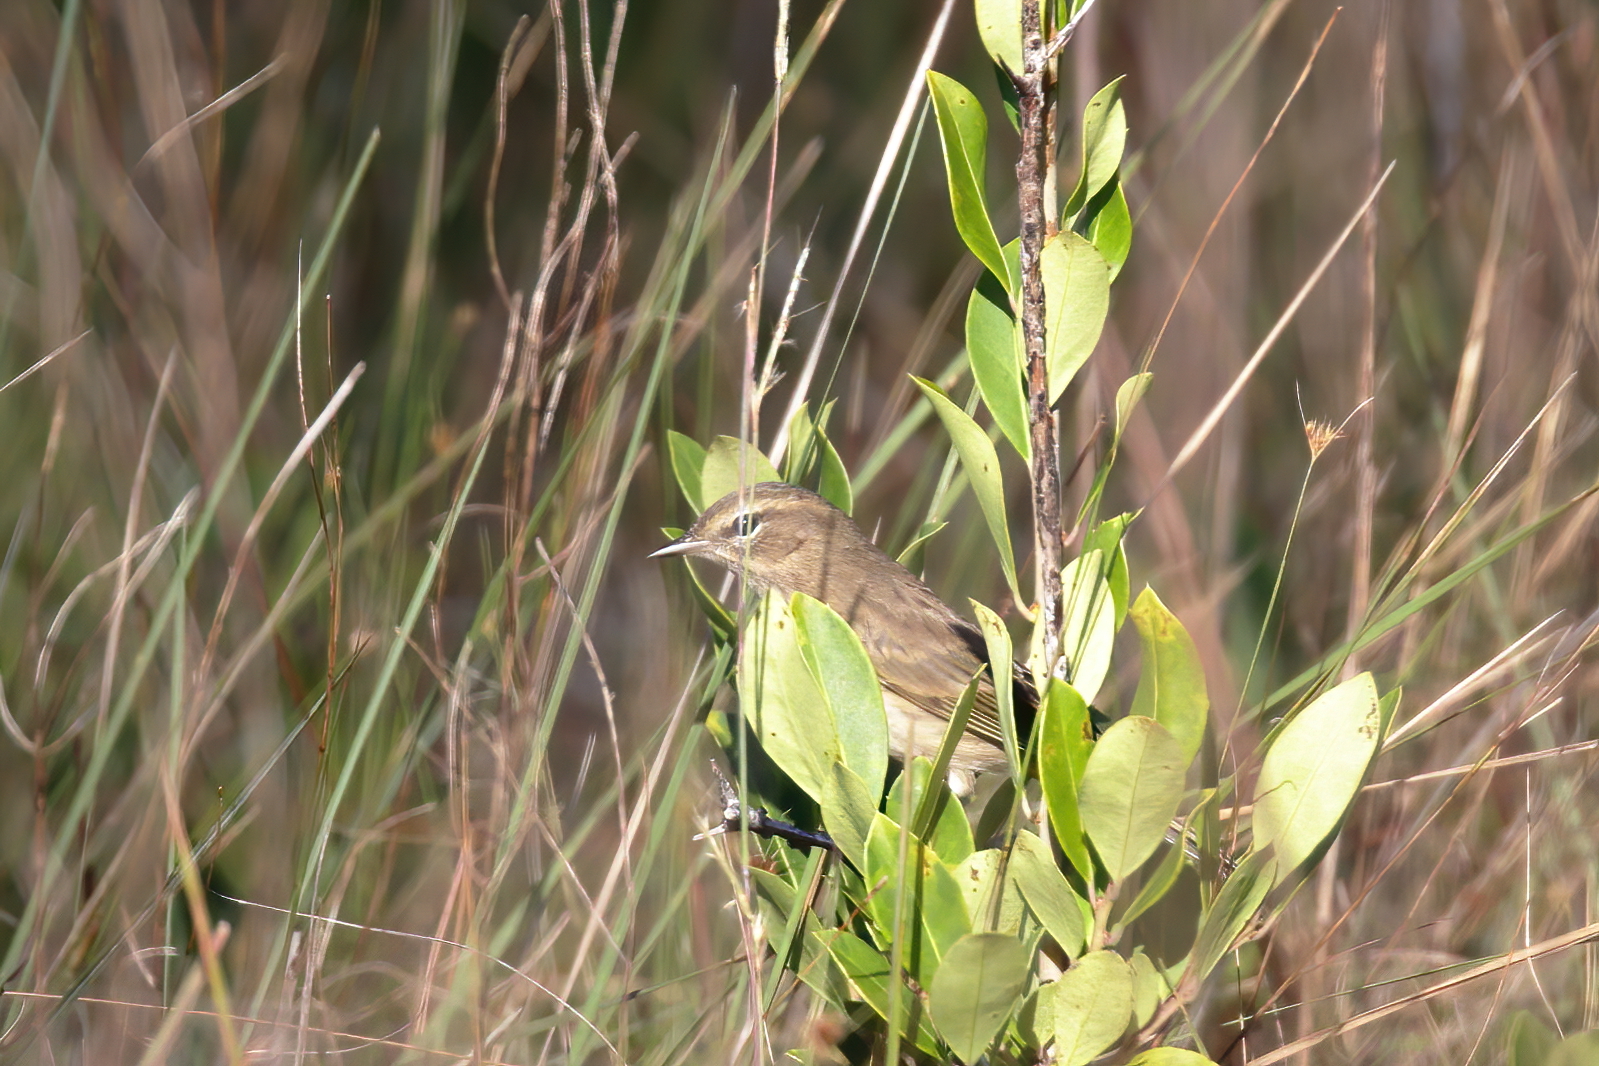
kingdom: Animalia
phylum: Chordata
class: Aves
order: Passeriformes
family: Parulidae
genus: Setophaga
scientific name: Setophaga palmarum
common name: Palm warbler
